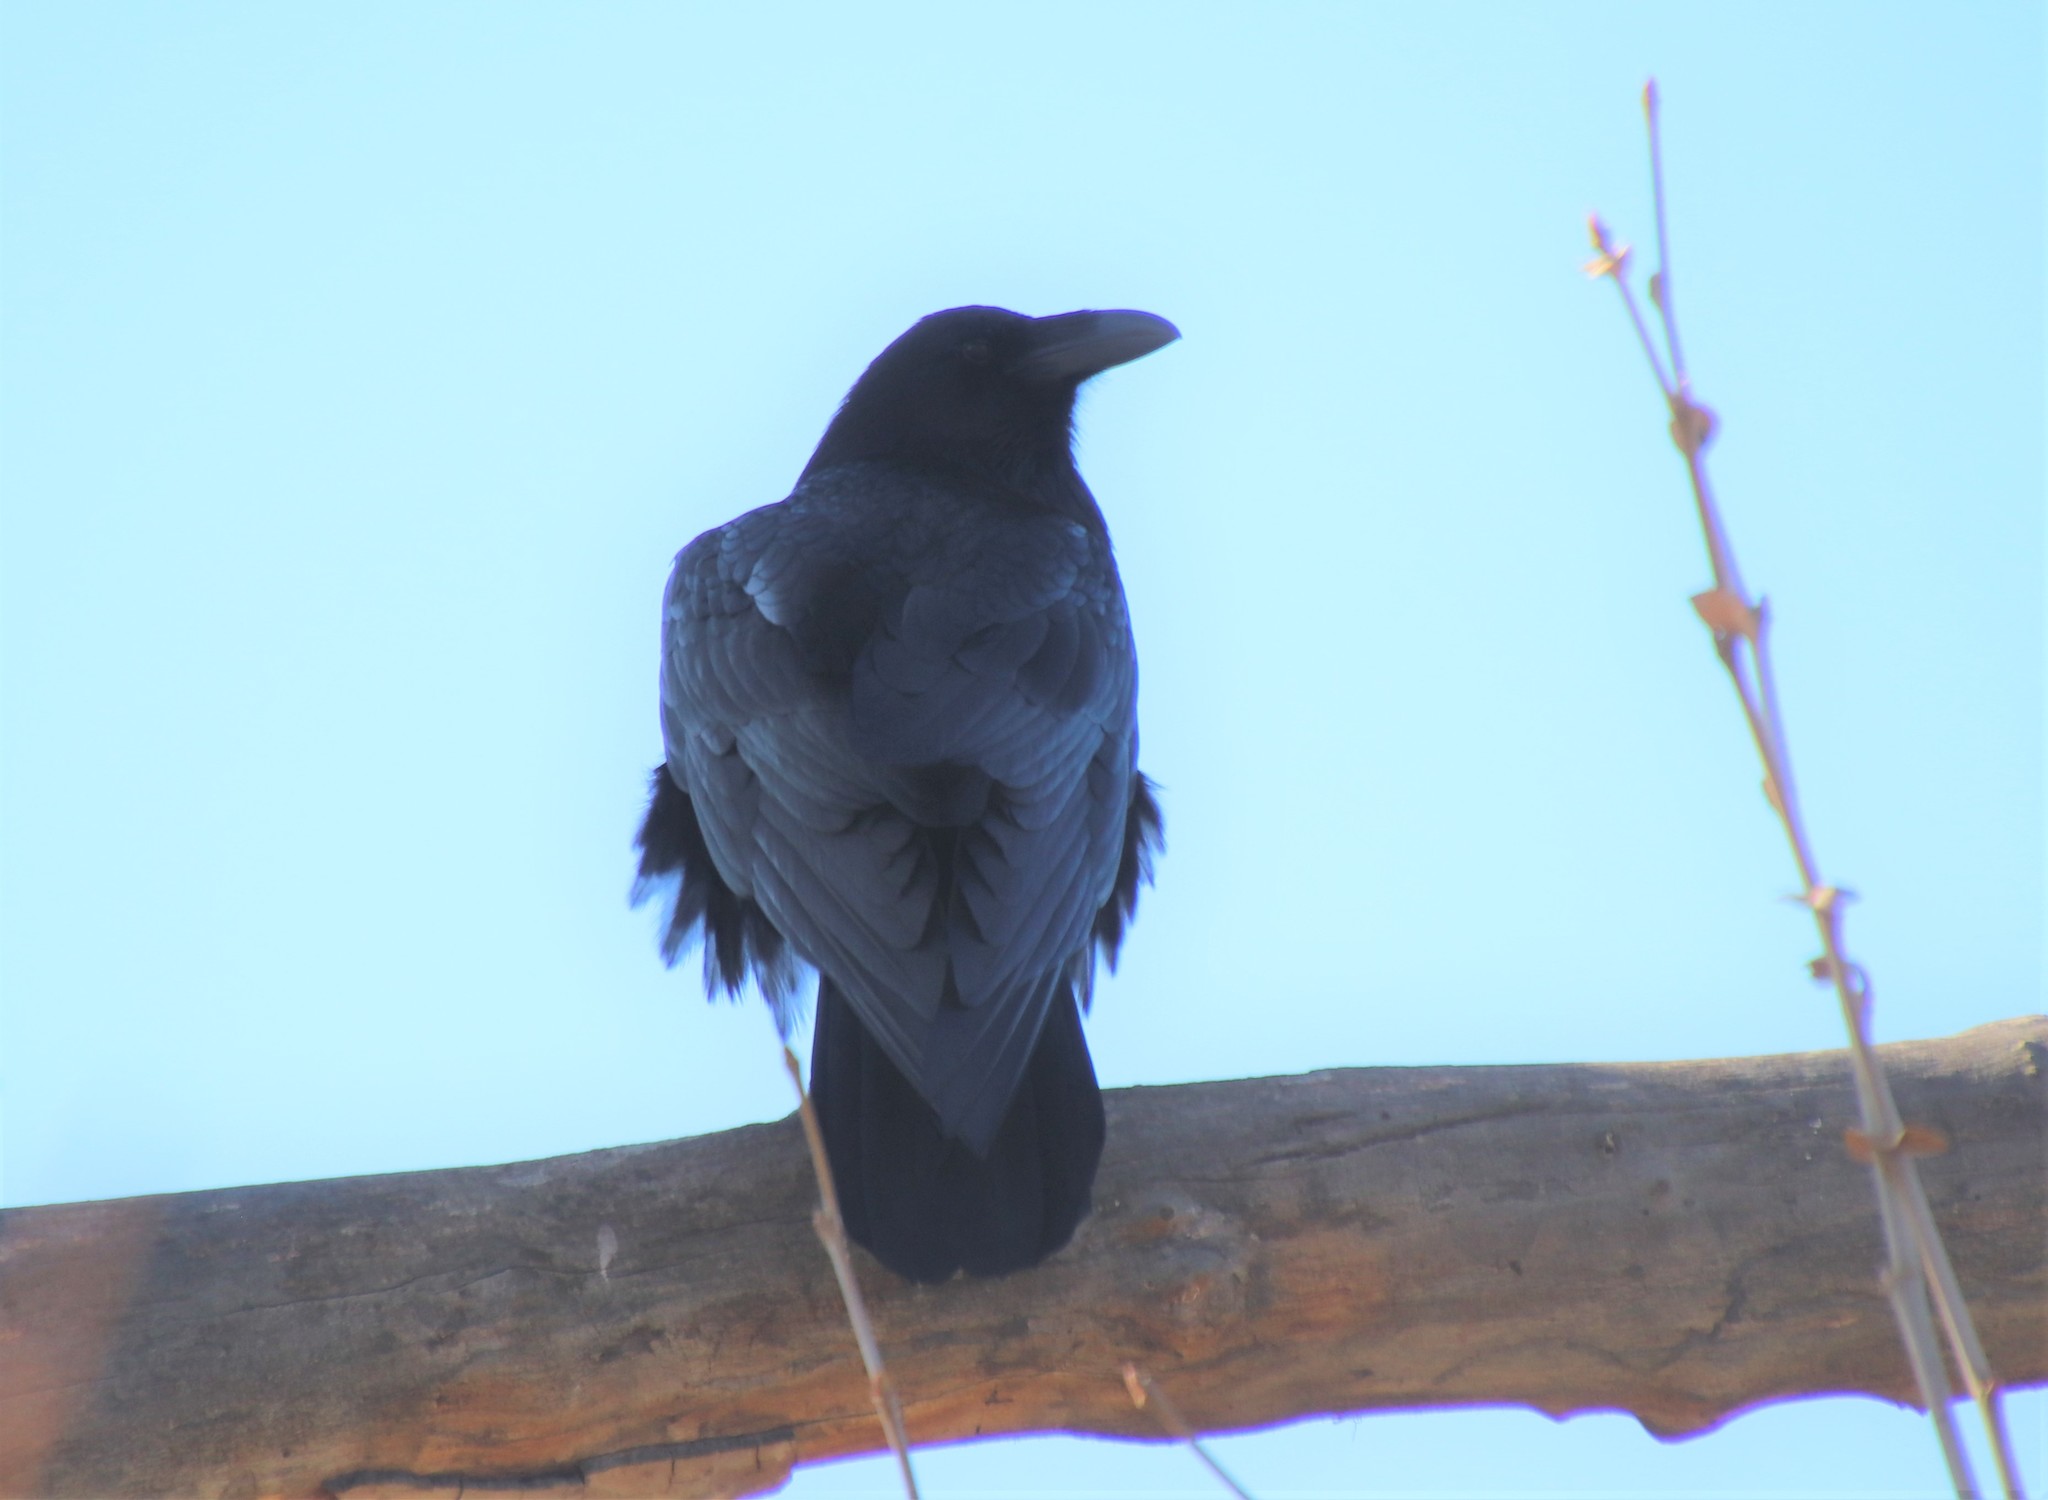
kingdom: Animalia
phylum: Chordata
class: Aves
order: Passeriformes
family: Corvidae
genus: Corvus
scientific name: Corvus corax
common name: Common raven
